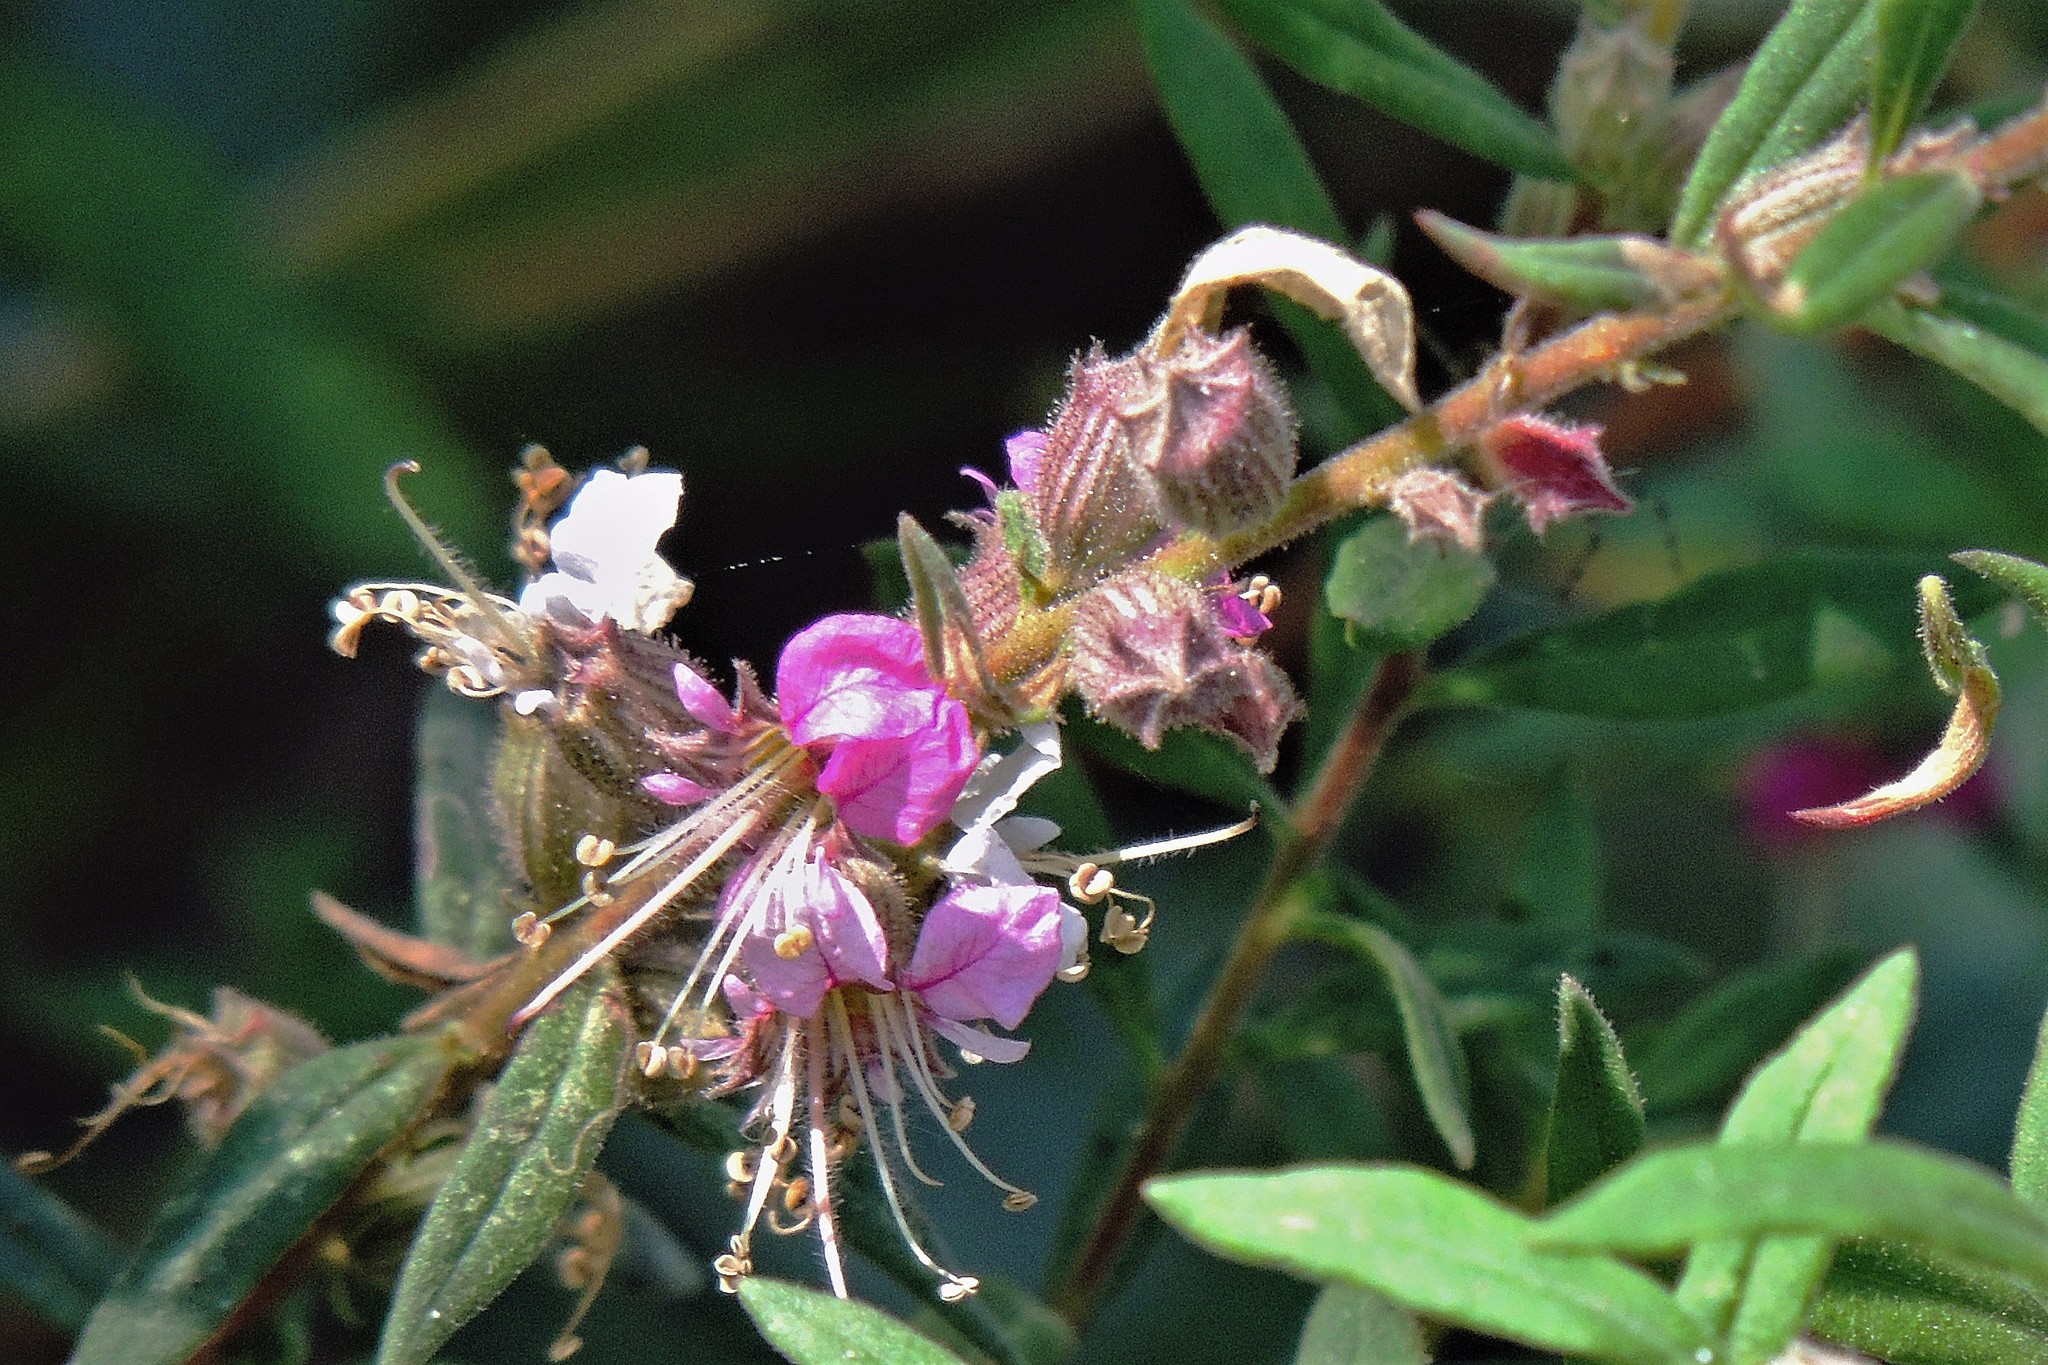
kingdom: Plantae
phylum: Tracheophyta
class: Magnoliopsida
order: Myrtales
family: Lythraceae
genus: Pleurophora
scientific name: Pleurophora saccocarpa
